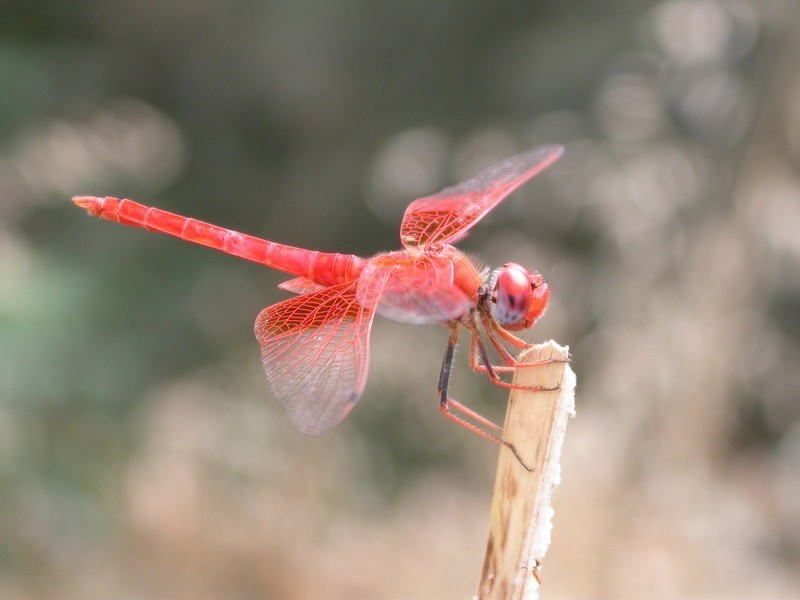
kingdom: Animalia
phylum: Arthropoda
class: Insecta
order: Odonata
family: Libellulidae
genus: Trithemis
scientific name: Trithemis kirbyi
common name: Kirby's dropwing
